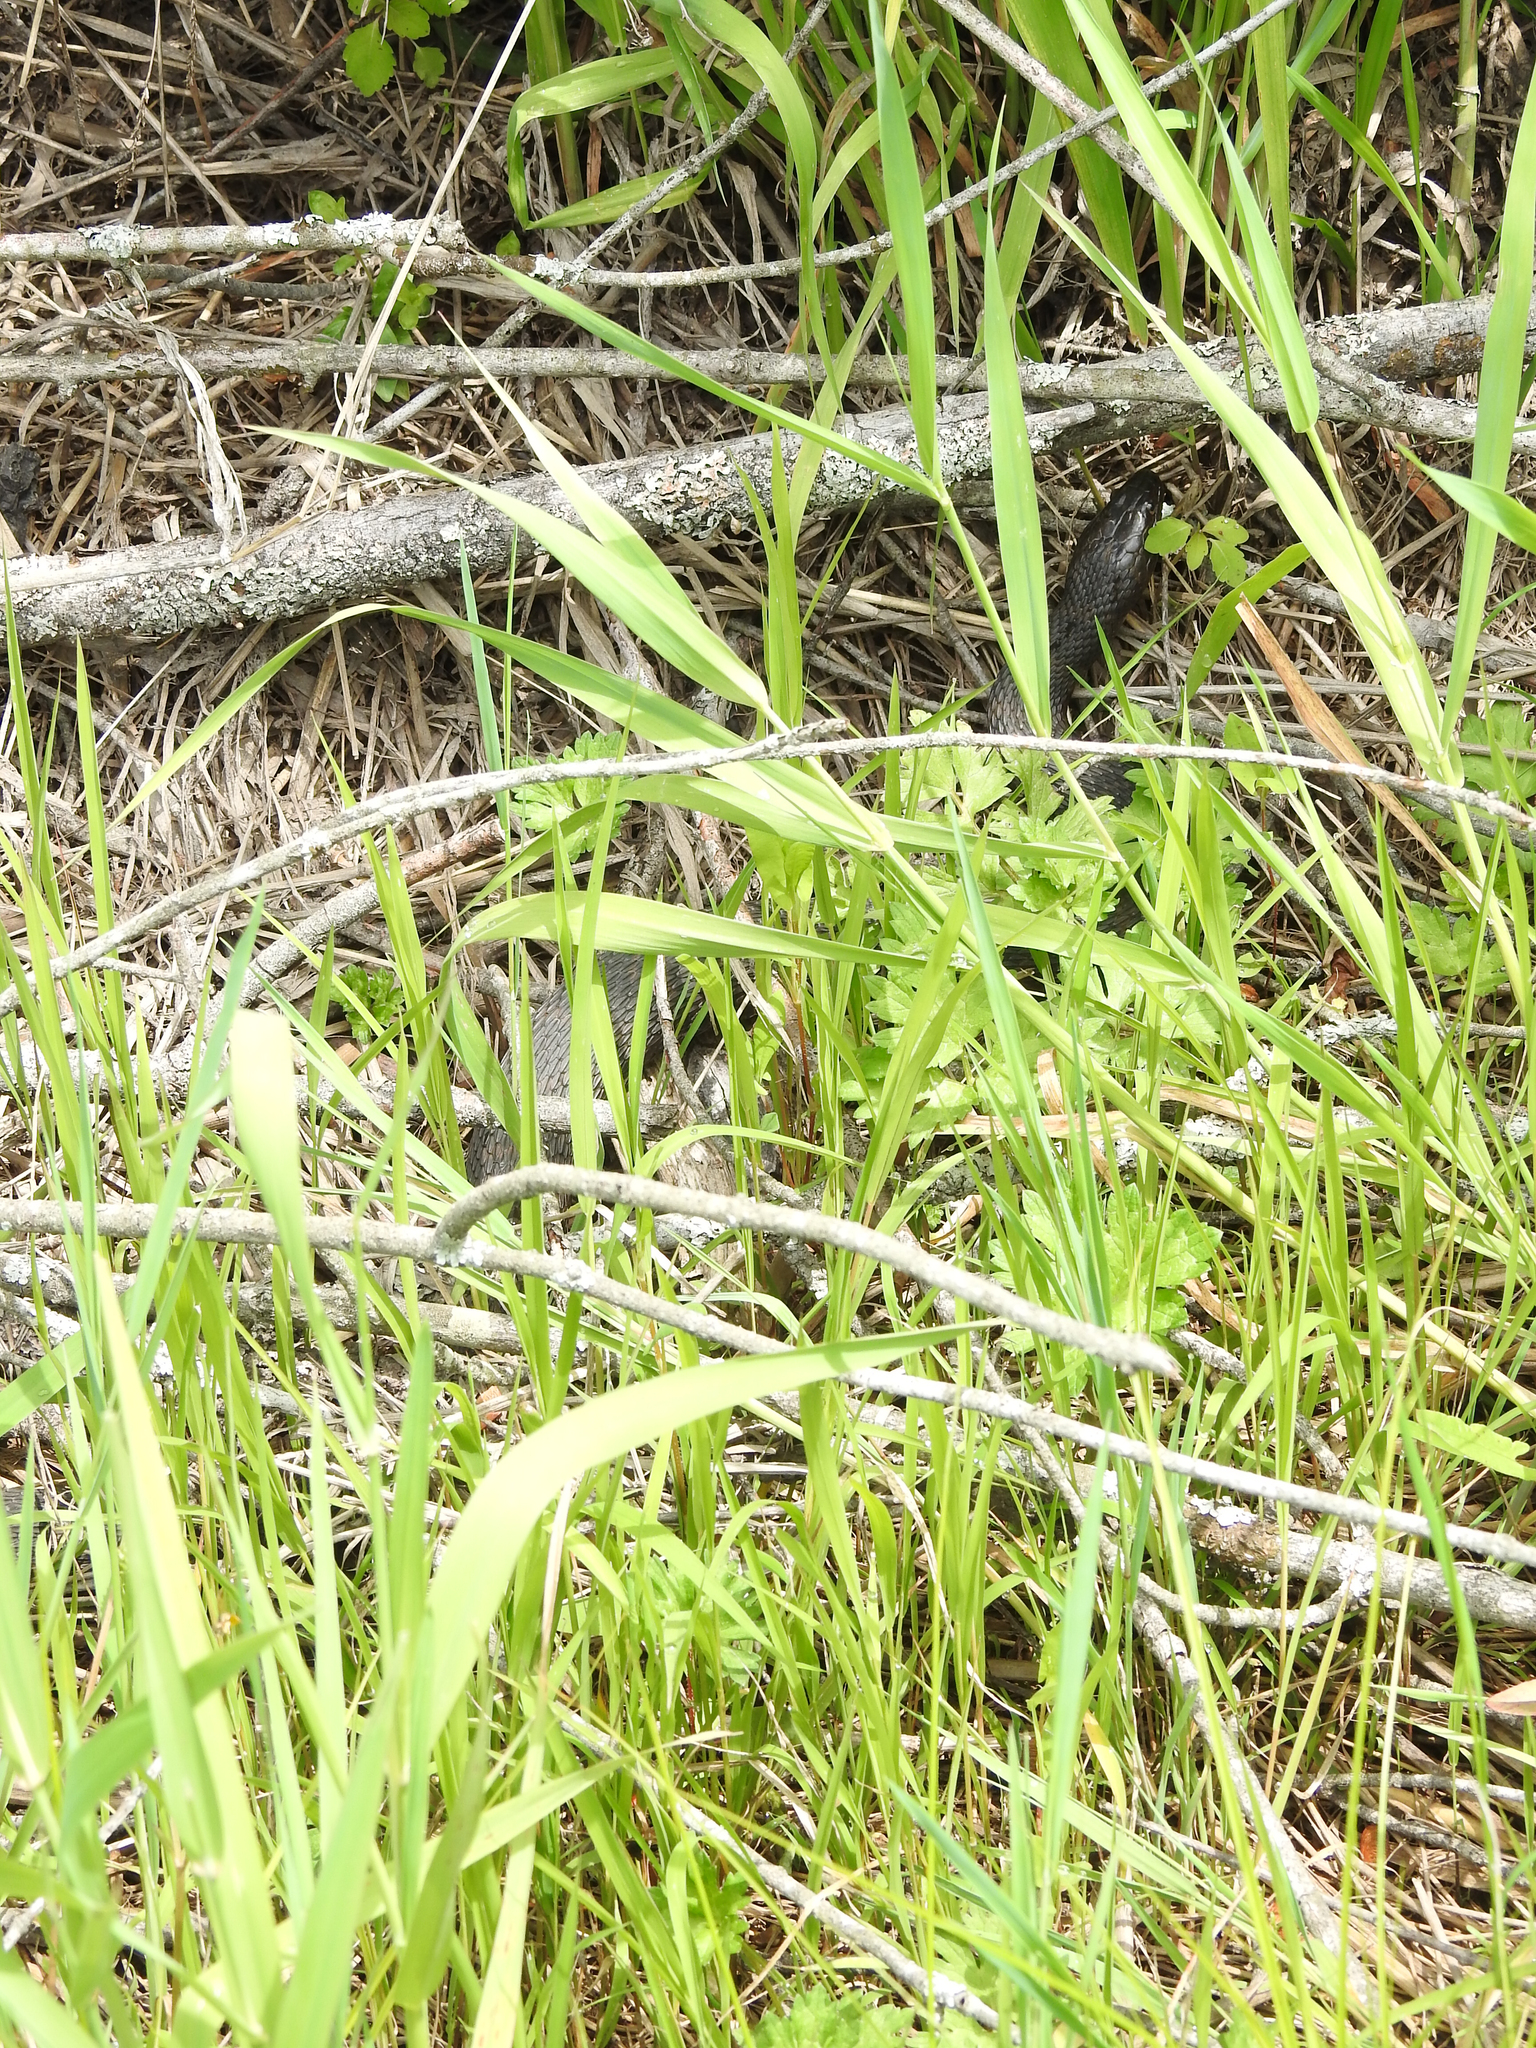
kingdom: Animalia
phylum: Chordata
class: Squamata
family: Colubridae
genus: Nerodia
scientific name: Nerodia sipedon
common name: Northern water snake
